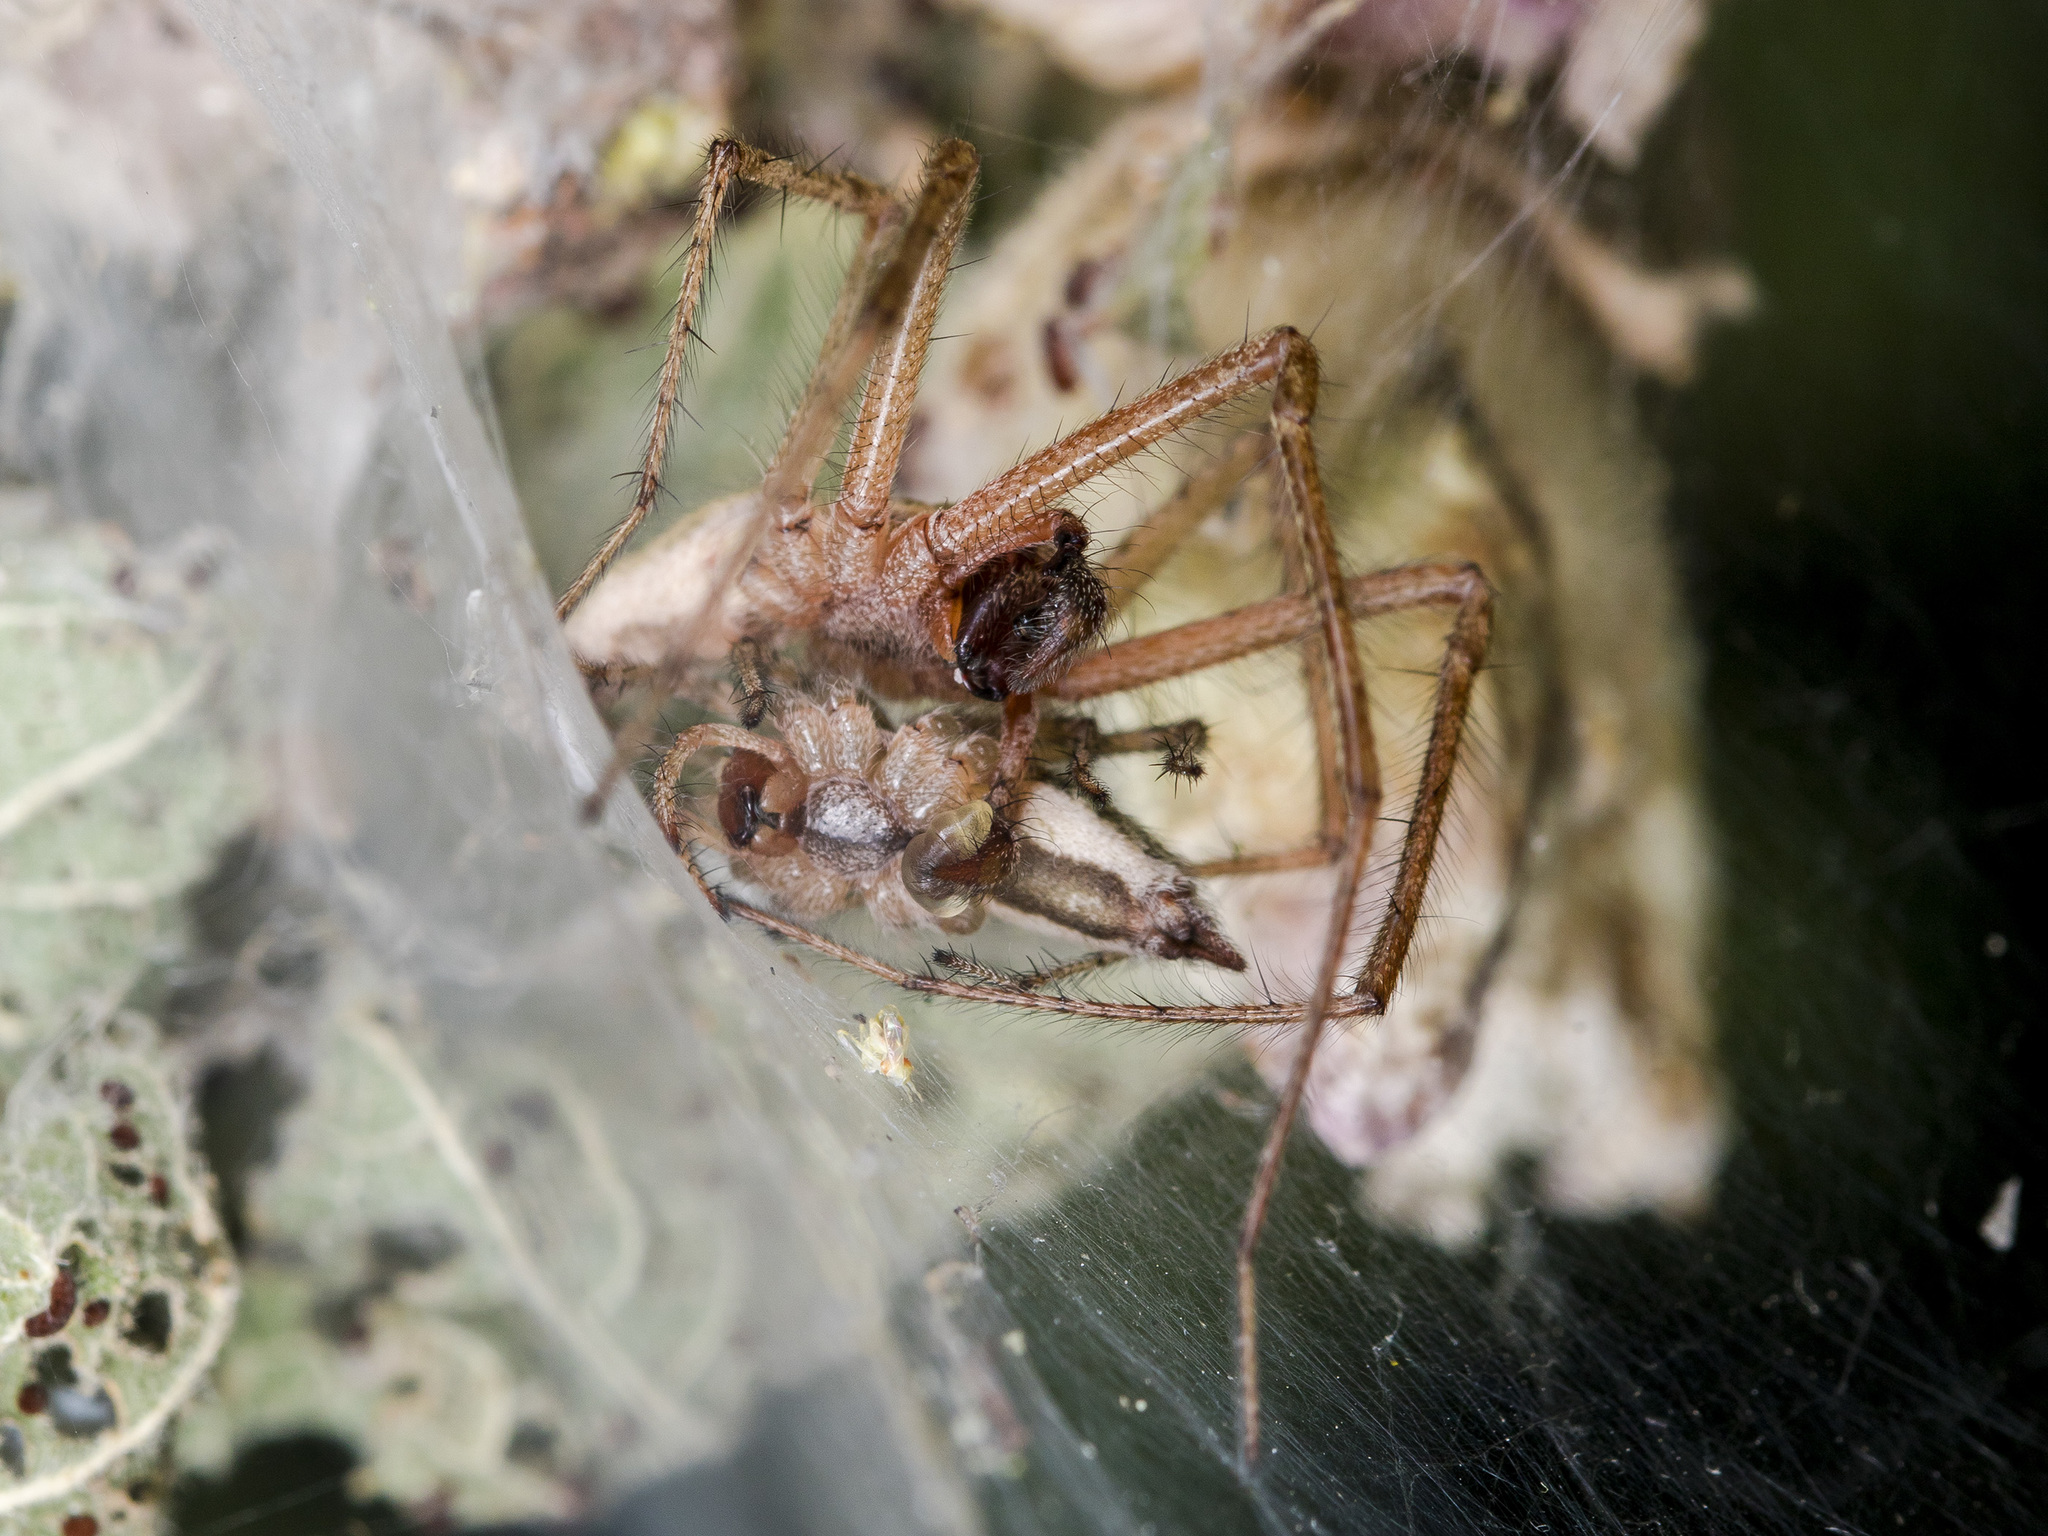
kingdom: Animalia
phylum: Arthropoda
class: Arachnida
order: Araneae
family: Agelenidae
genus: Allagelena
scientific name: Allagelena gracilens
